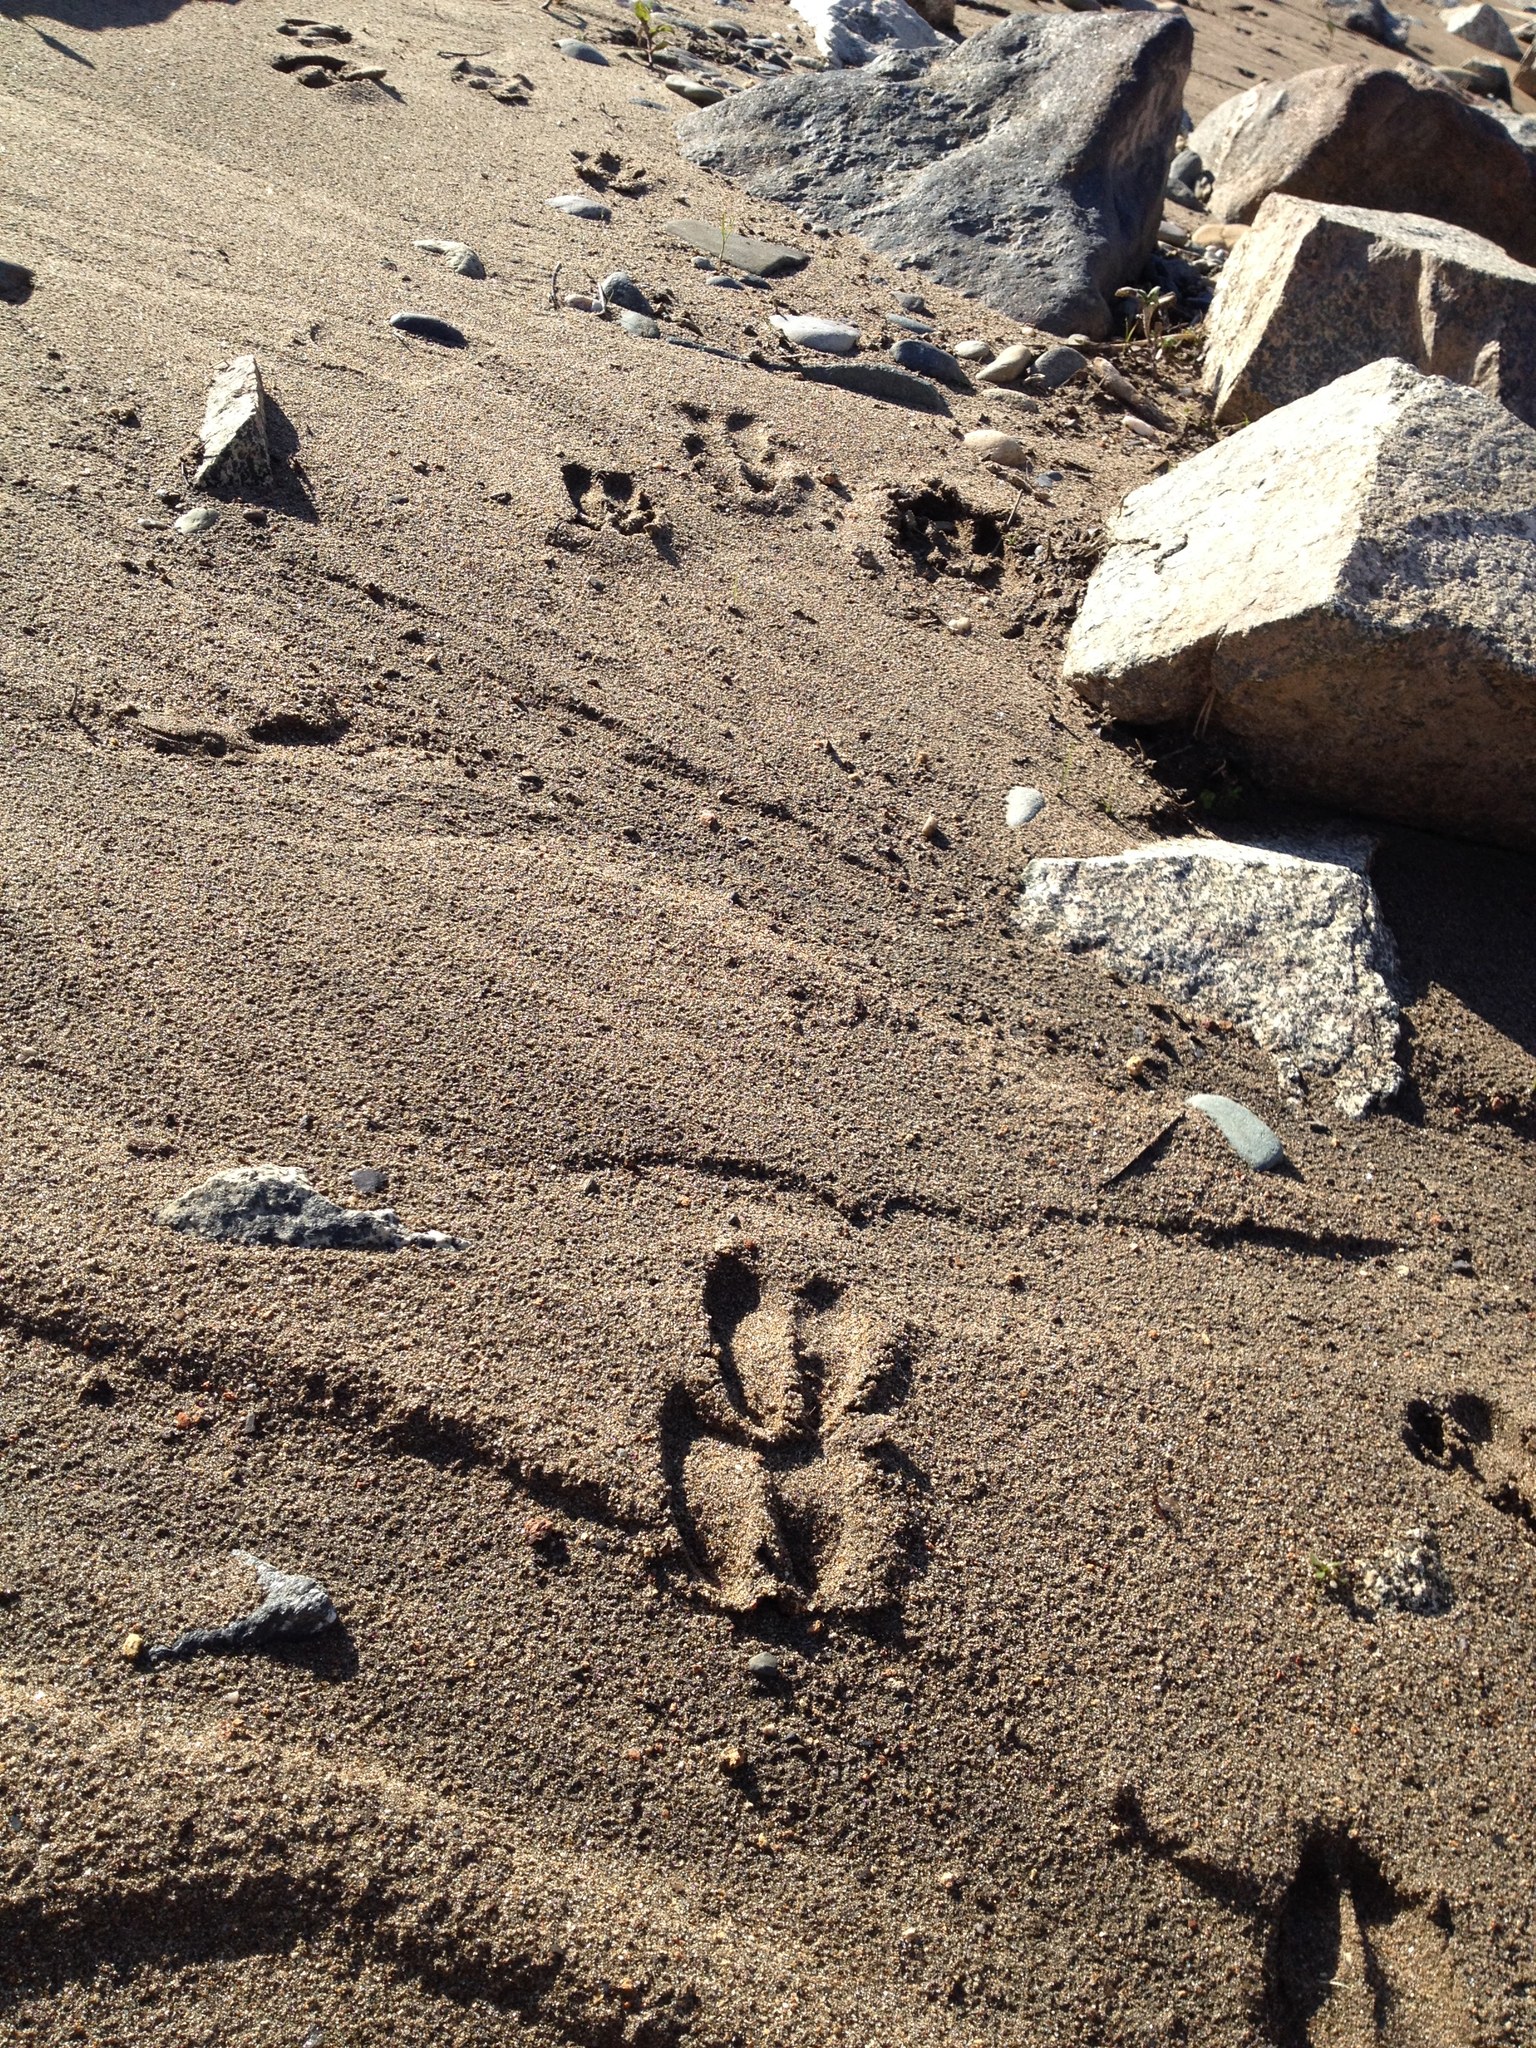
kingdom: Animalia
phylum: Chordata
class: Mammalia
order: Artiodactyla
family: Cervidae
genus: Odocoileus
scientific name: Odocoileus hemionus
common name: Mule deer
